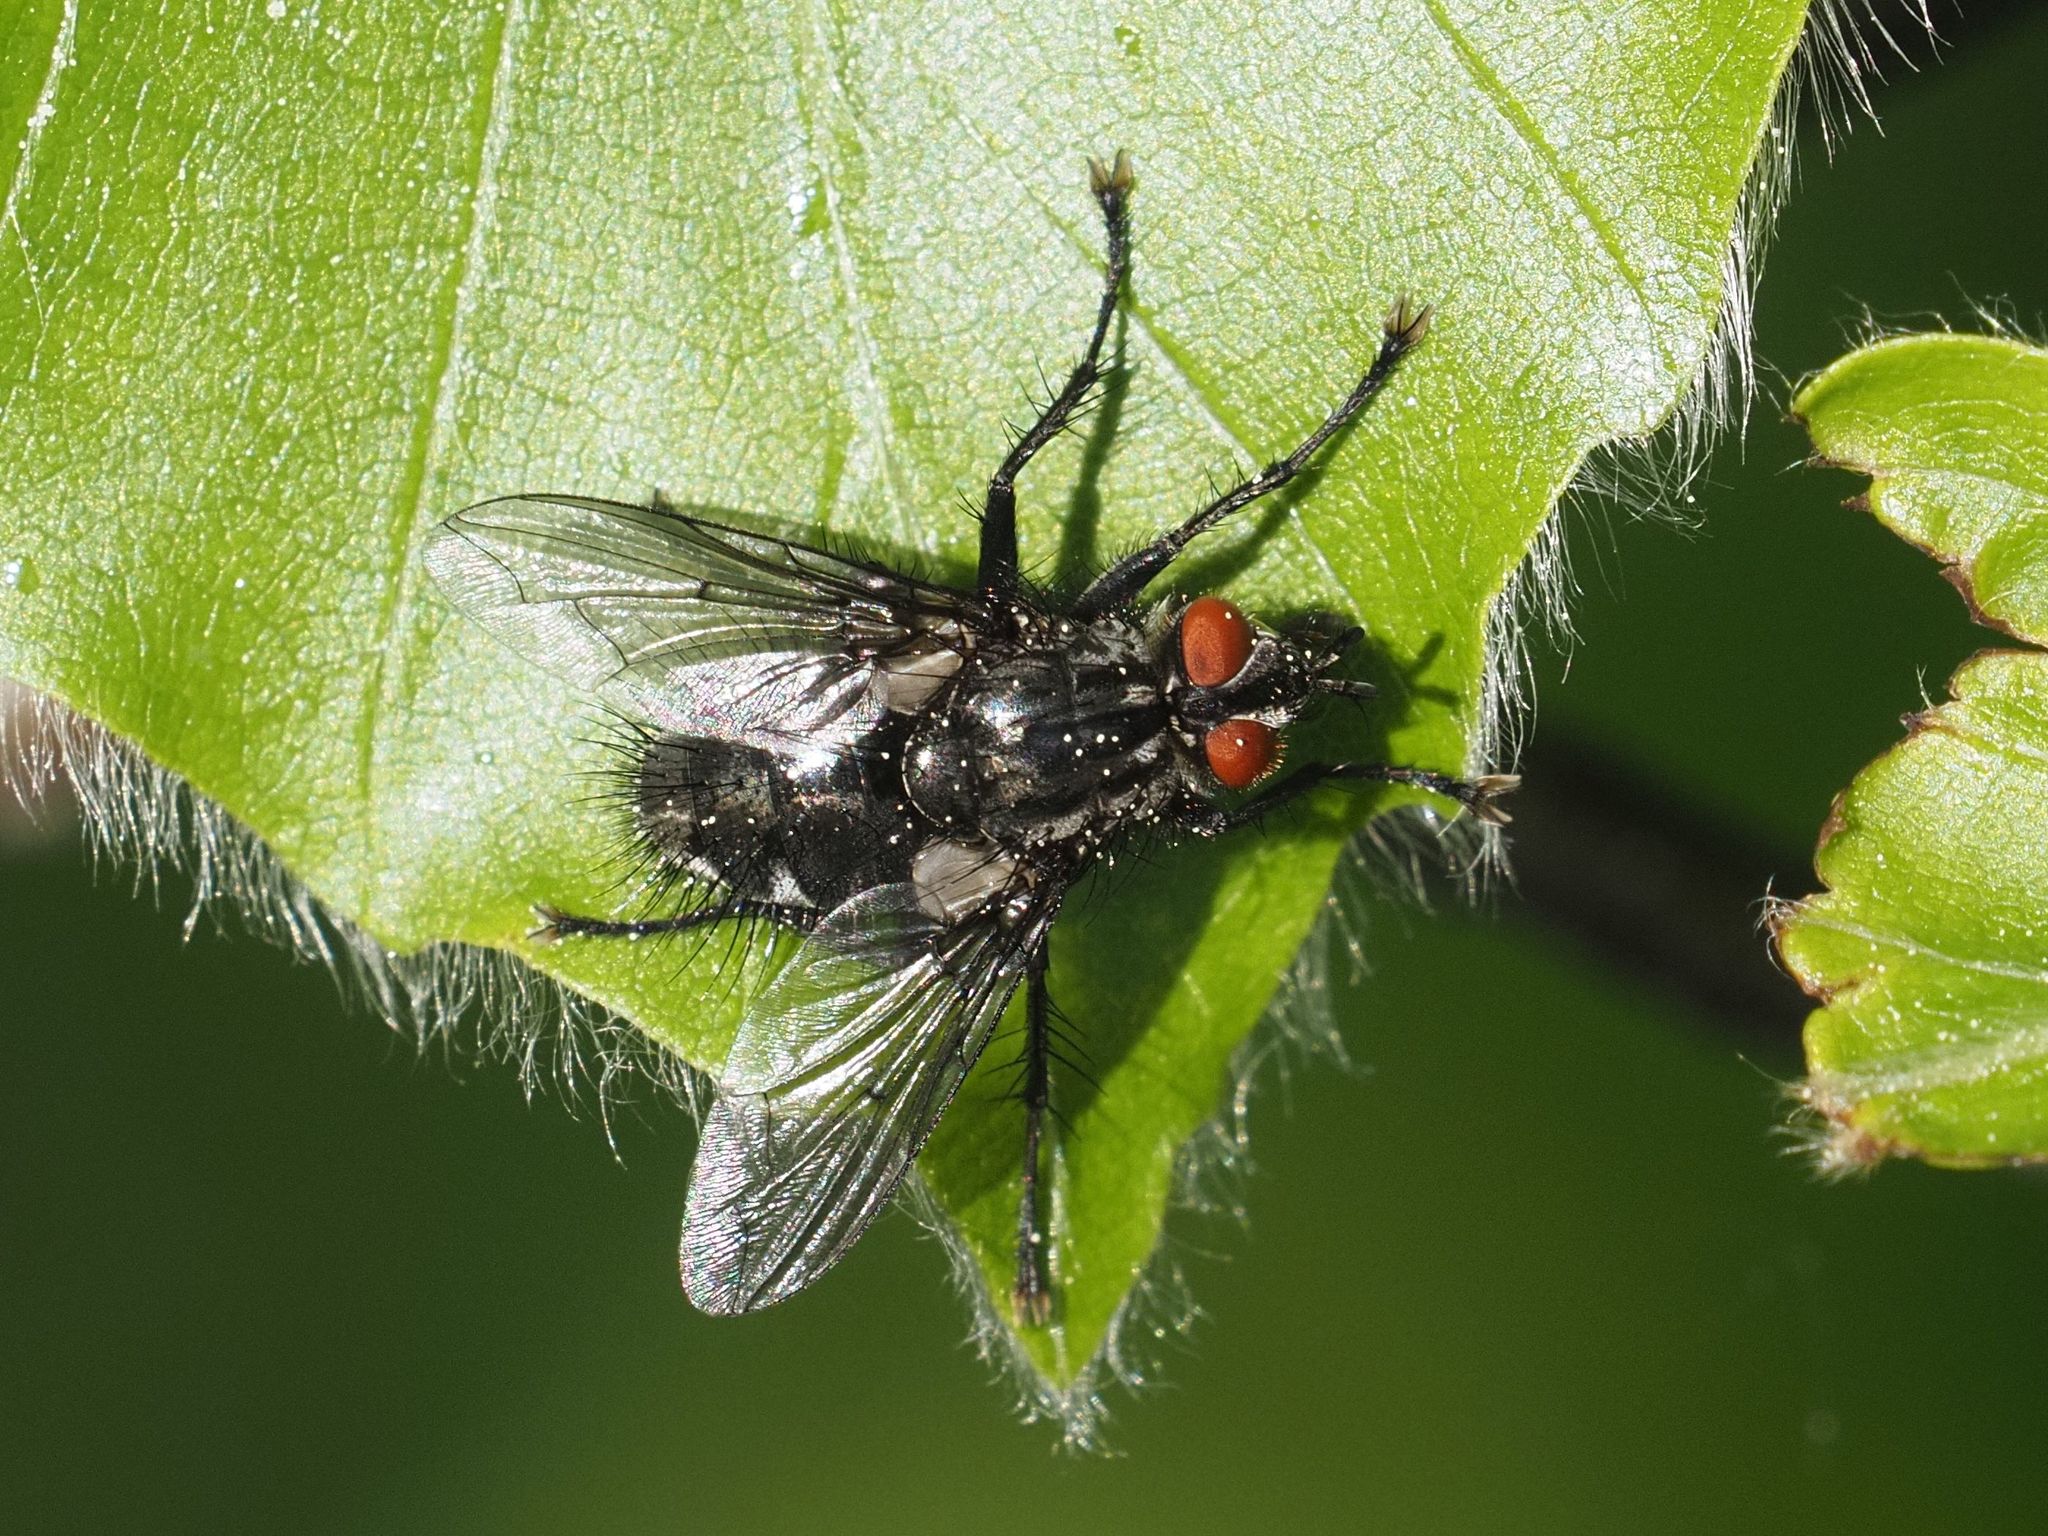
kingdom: Animalia
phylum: Arthropoda
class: Insecta
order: Diptera
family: Tachinidae
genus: Fausta
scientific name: Fausta nemorum
